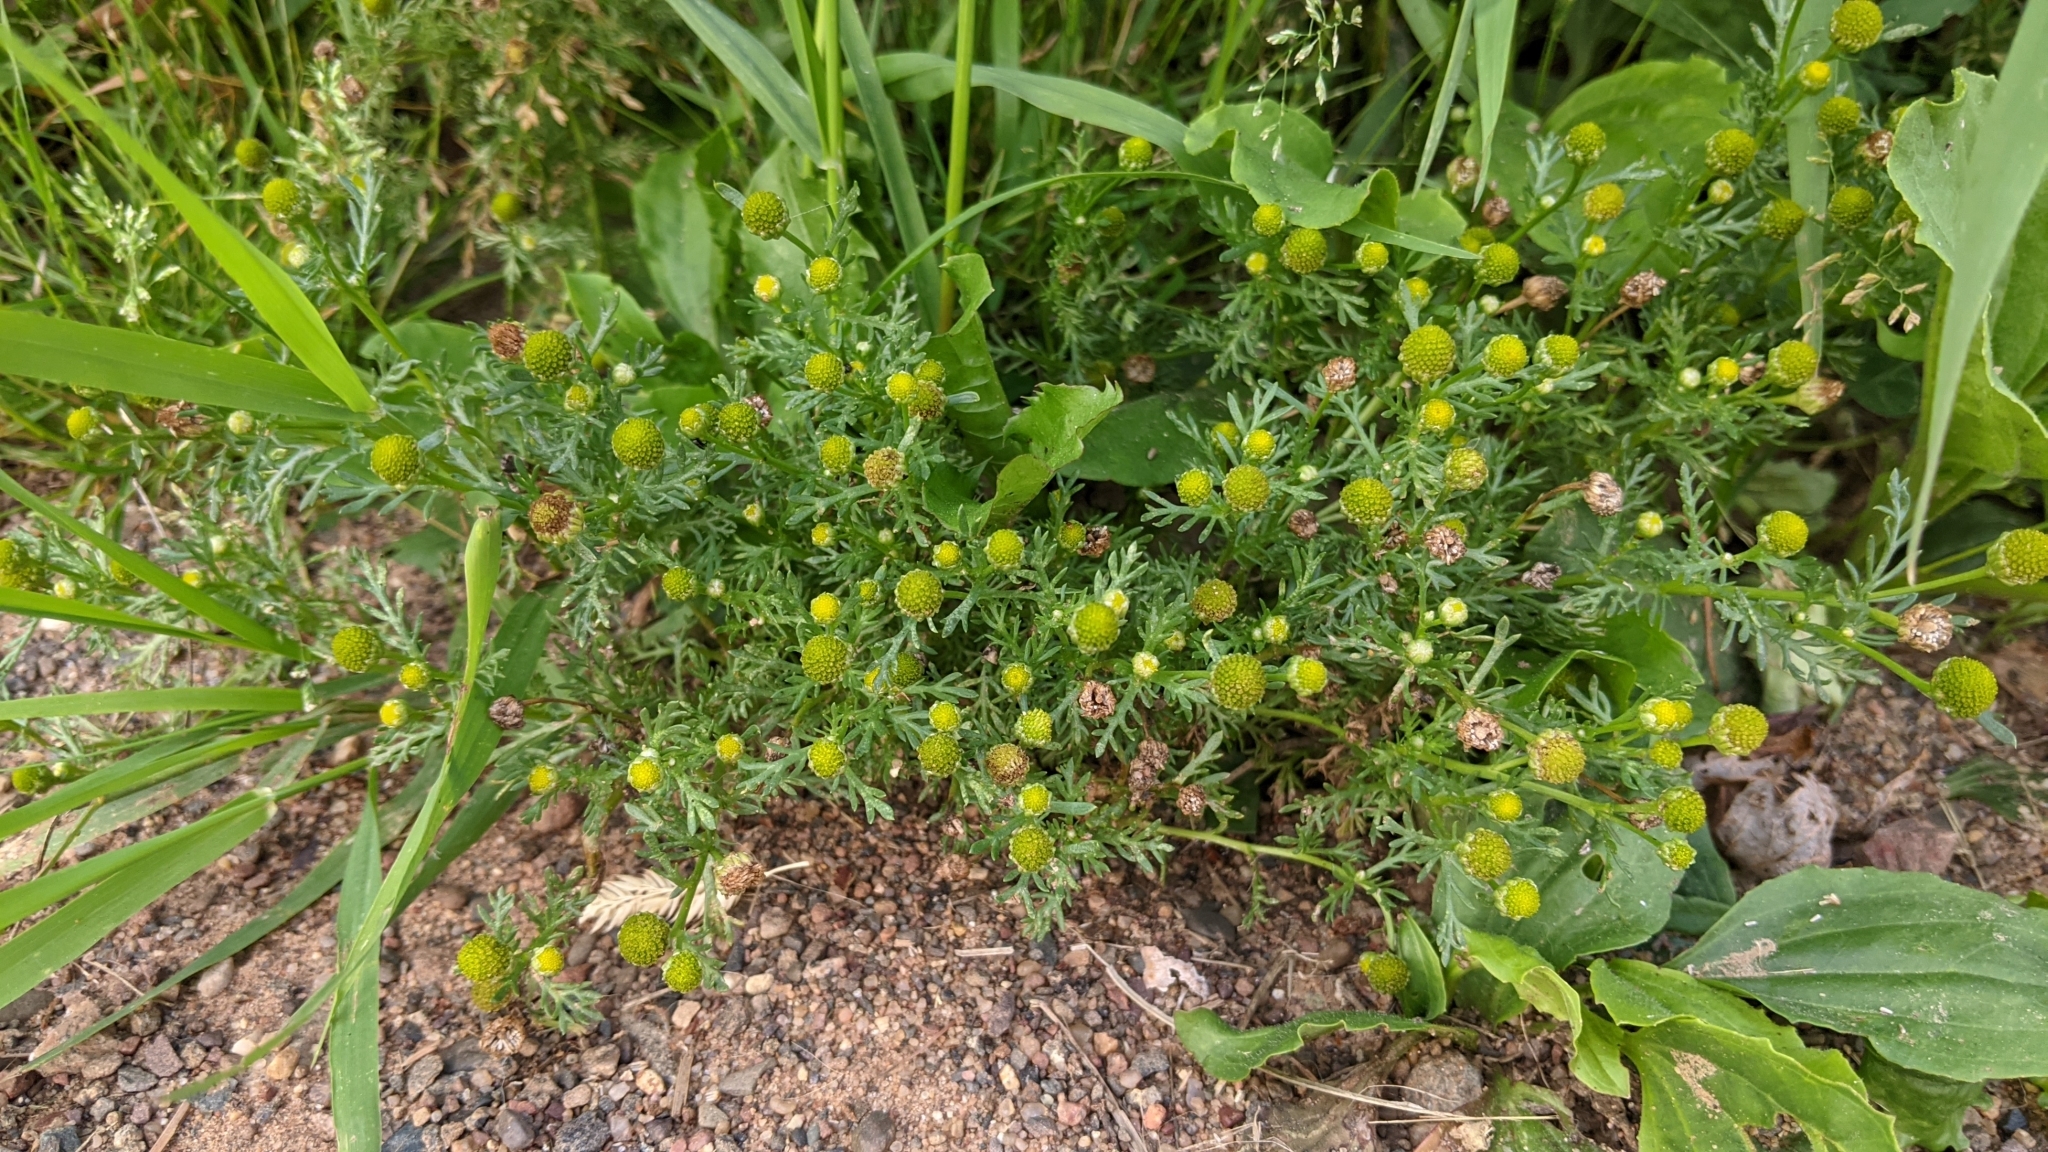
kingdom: Plantae
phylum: Tracheophyta
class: Magnoliopsida
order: Asterales
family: Asteraceae
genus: Matricaria
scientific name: Matricaria discoidea
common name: Disc mayweed
